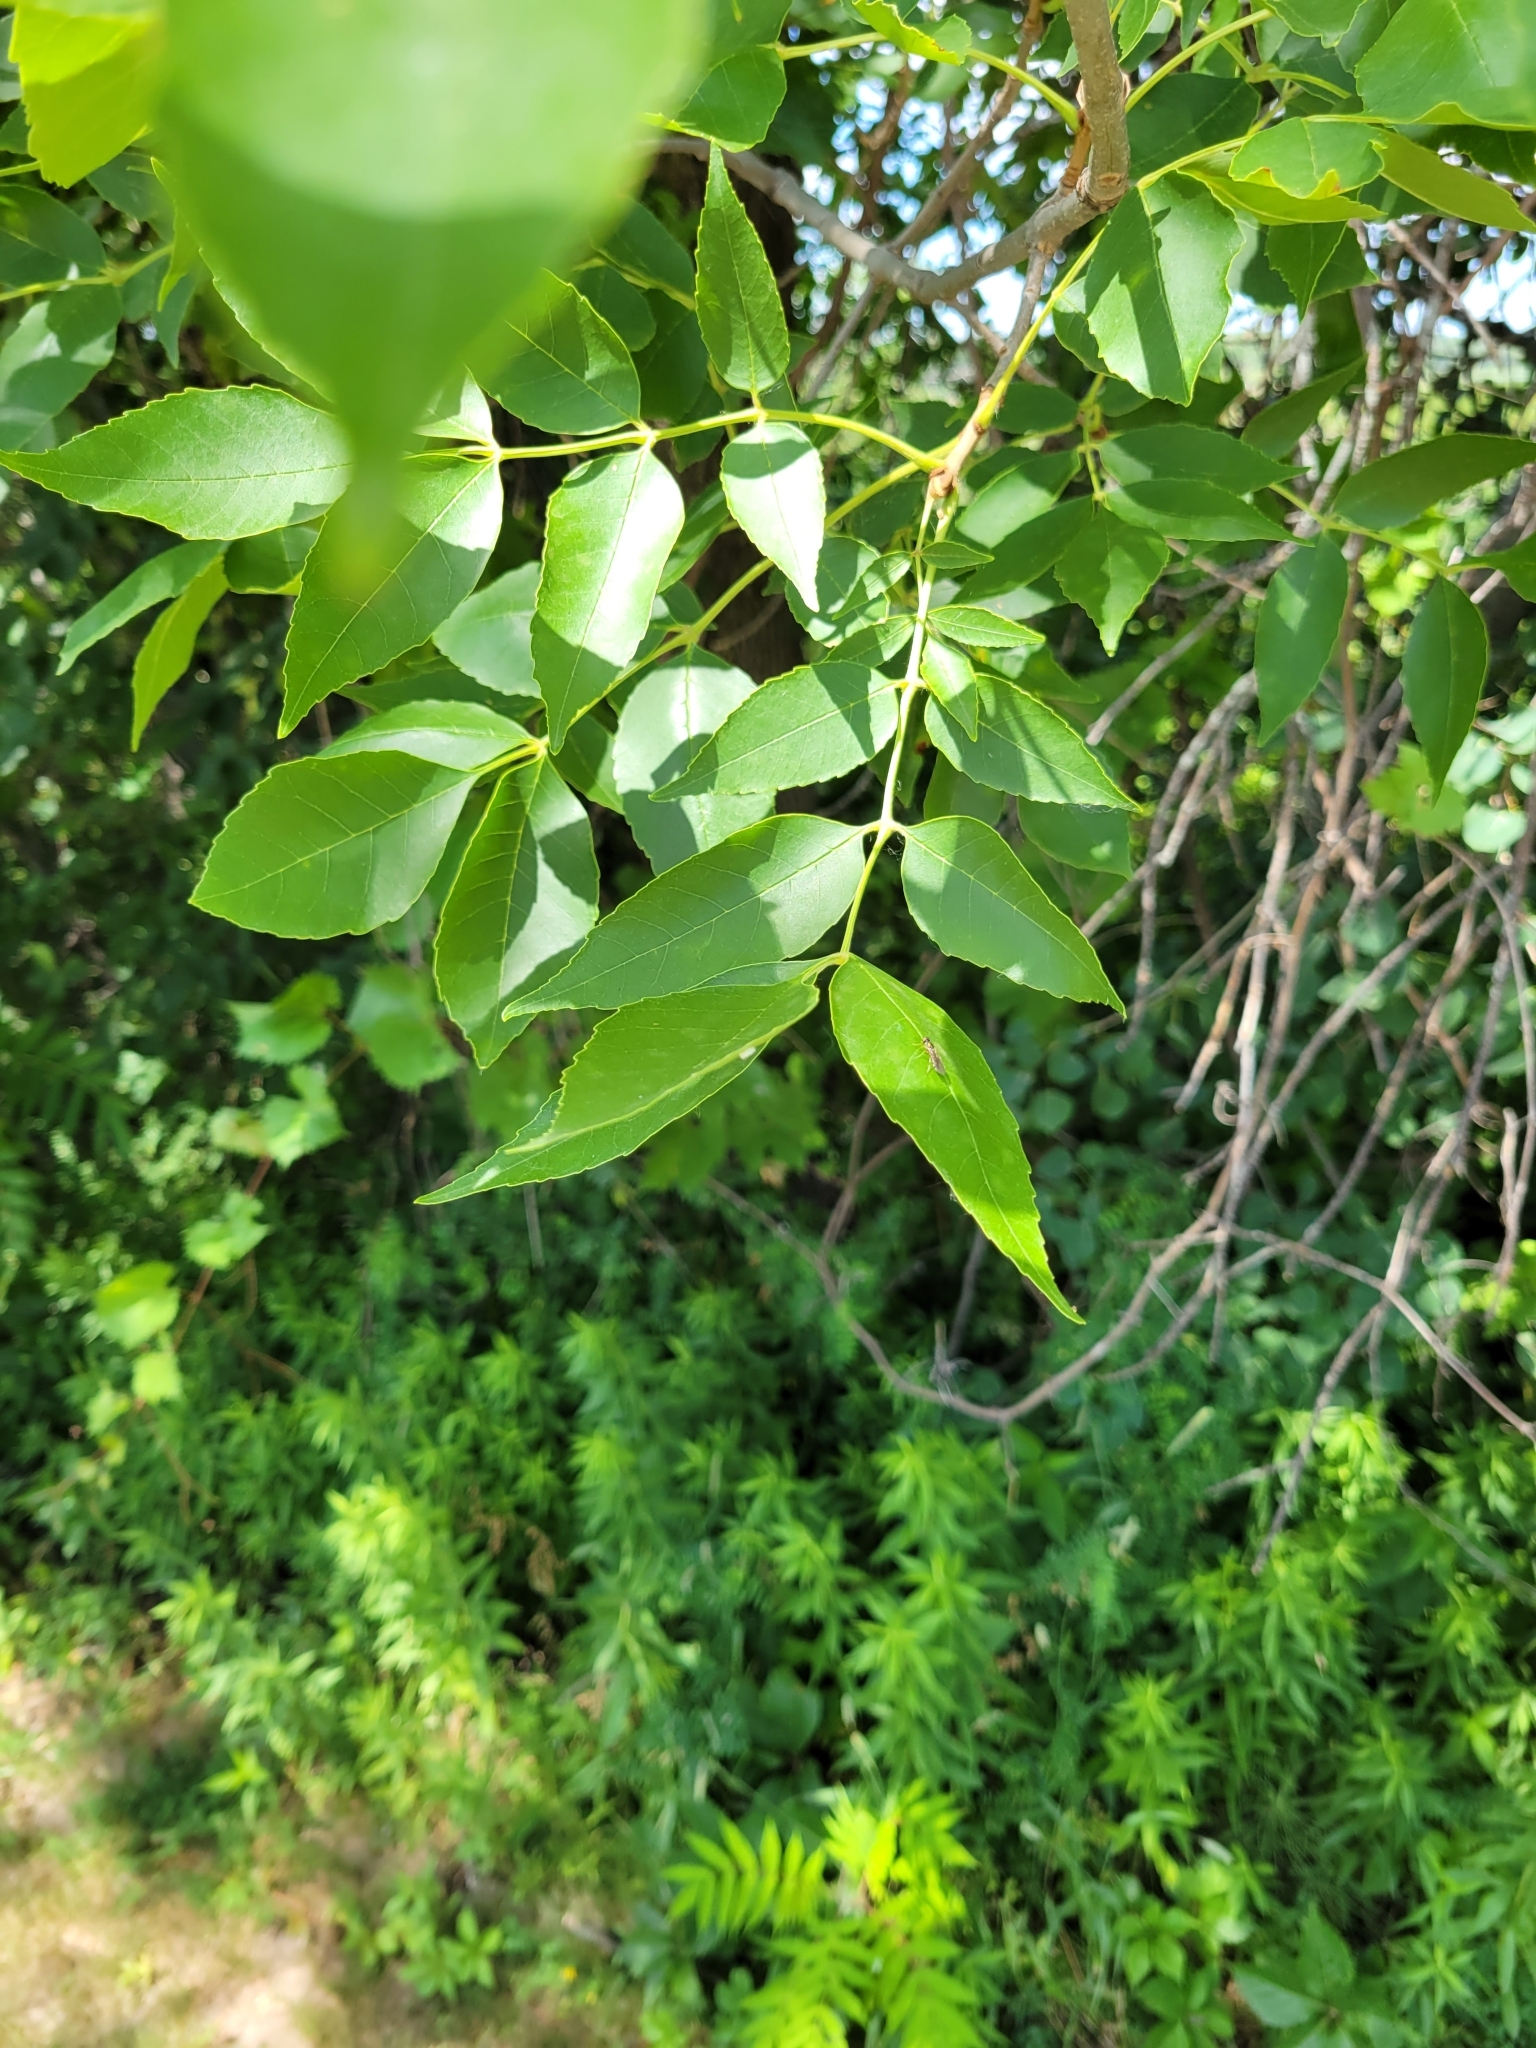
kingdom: Plantae
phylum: Tracheophyta
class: Magnoliopsida
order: Lamiales
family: Oleaceae
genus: Fraxinus
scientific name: Fraxinus pennsylvanica
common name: Green ash
